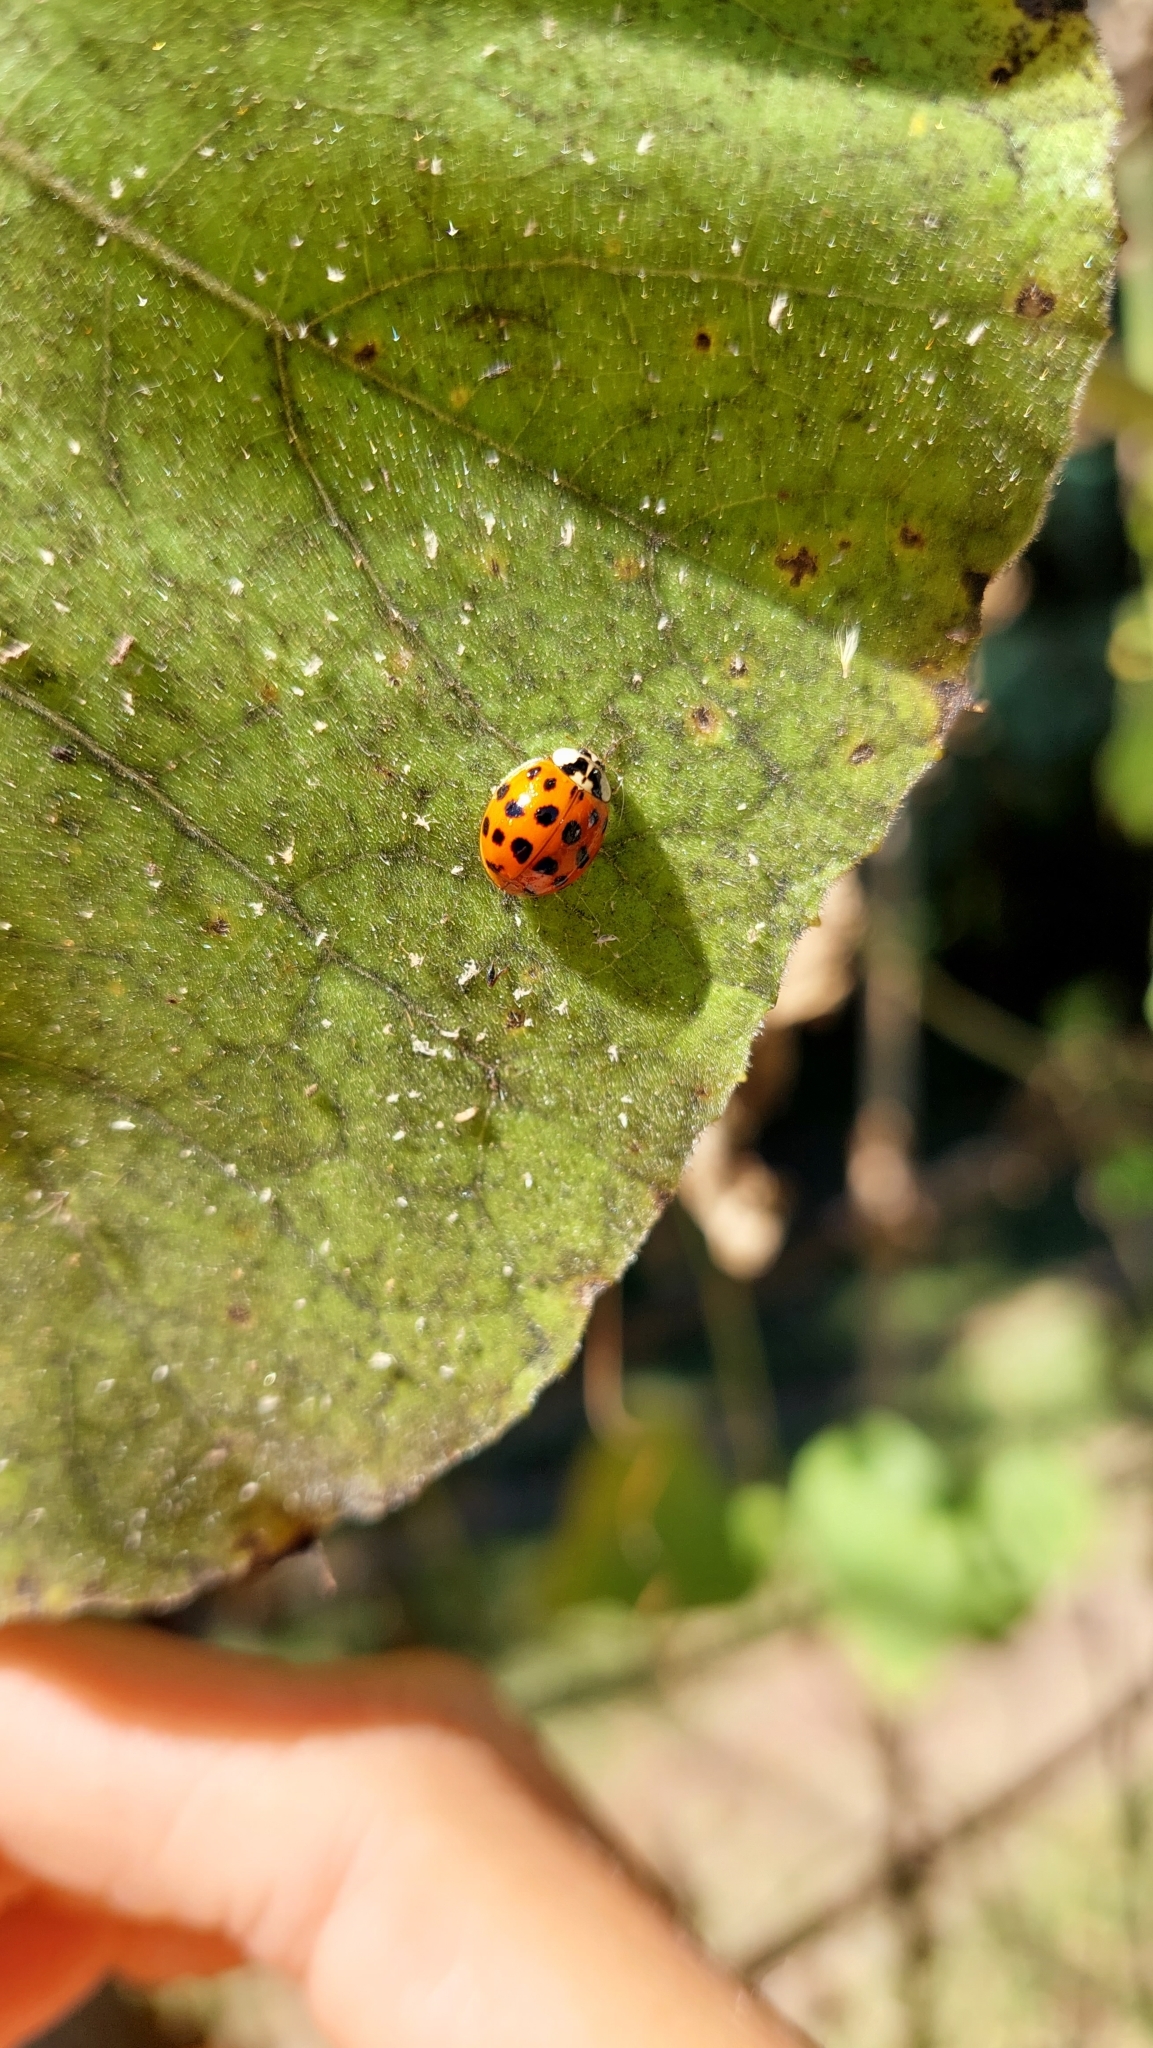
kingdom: Animalia
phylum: Arthropoda
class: Insecta
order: Coleoptera
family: Coccinellidae
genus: Harmonia
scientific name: Harmonia axyridis
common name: Harlequin ladybird
